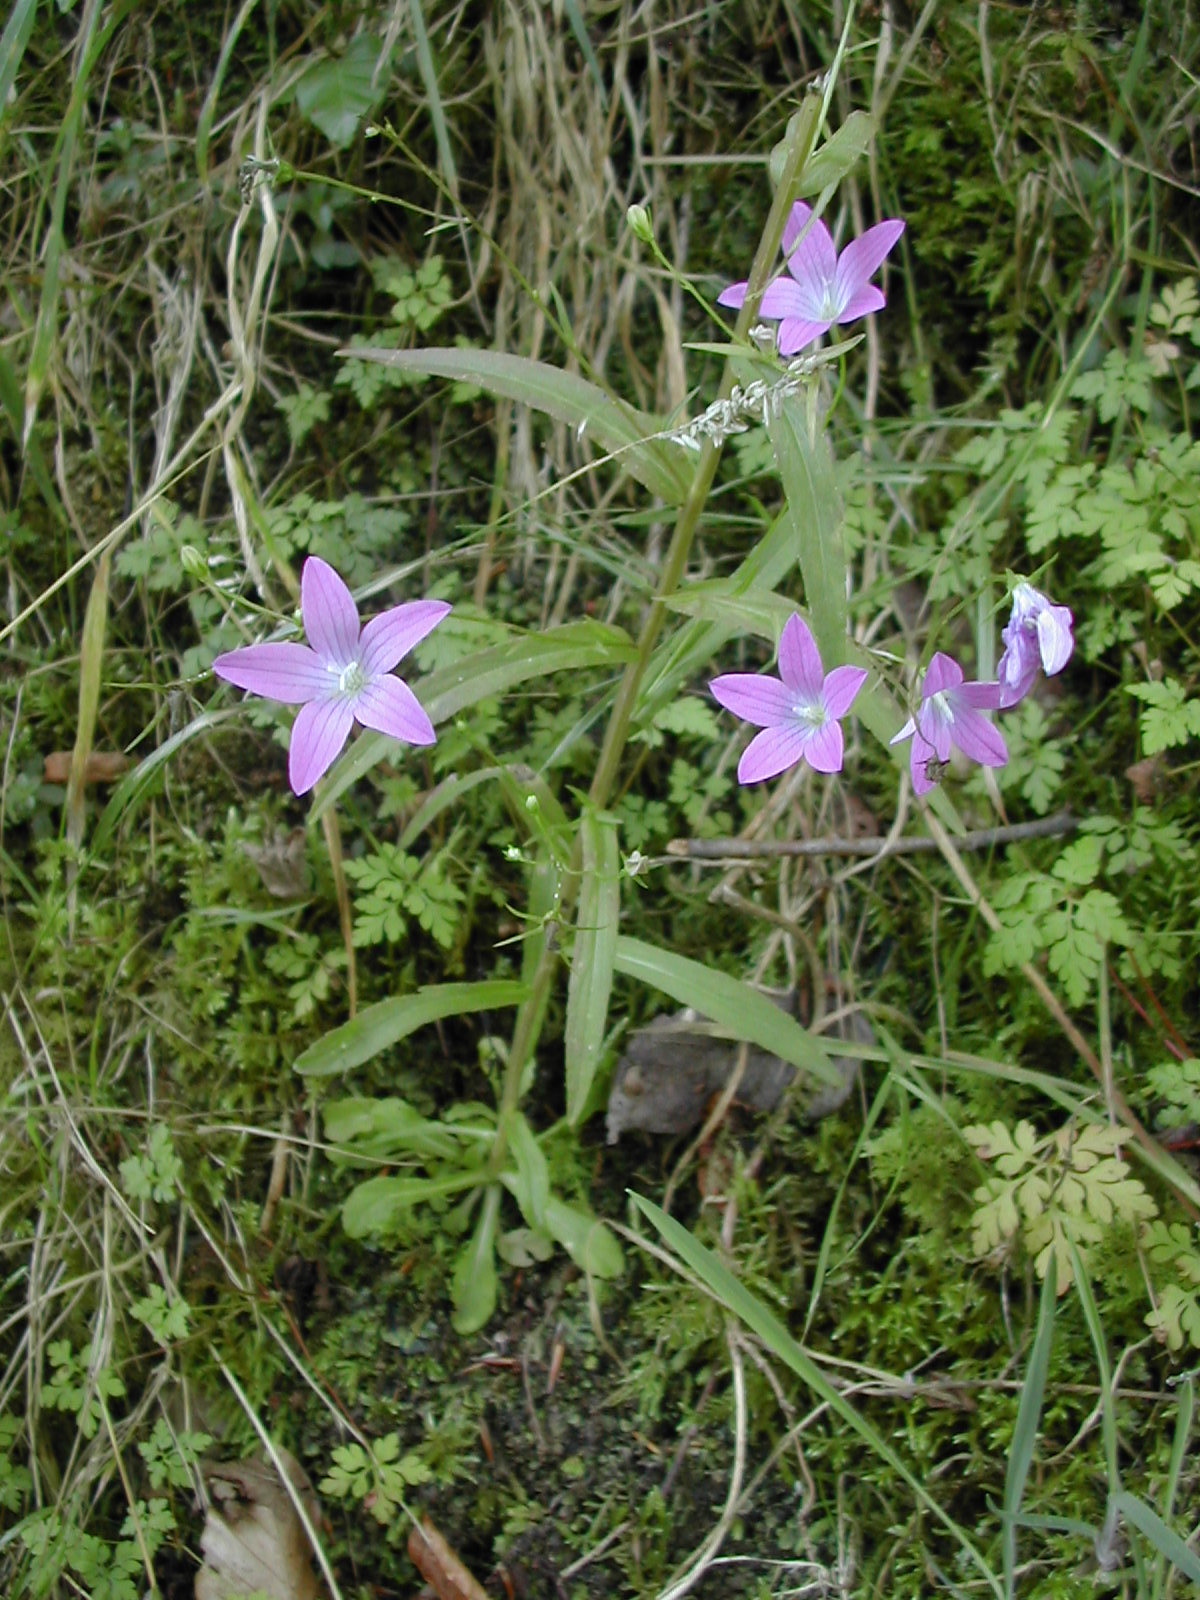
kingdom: Plantae
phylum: Tracheophyta
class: Magnoliopsida
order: Asterales
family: Campanulaceae
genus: Campanula
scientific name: Campanula patula
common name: Spreading bellflower
